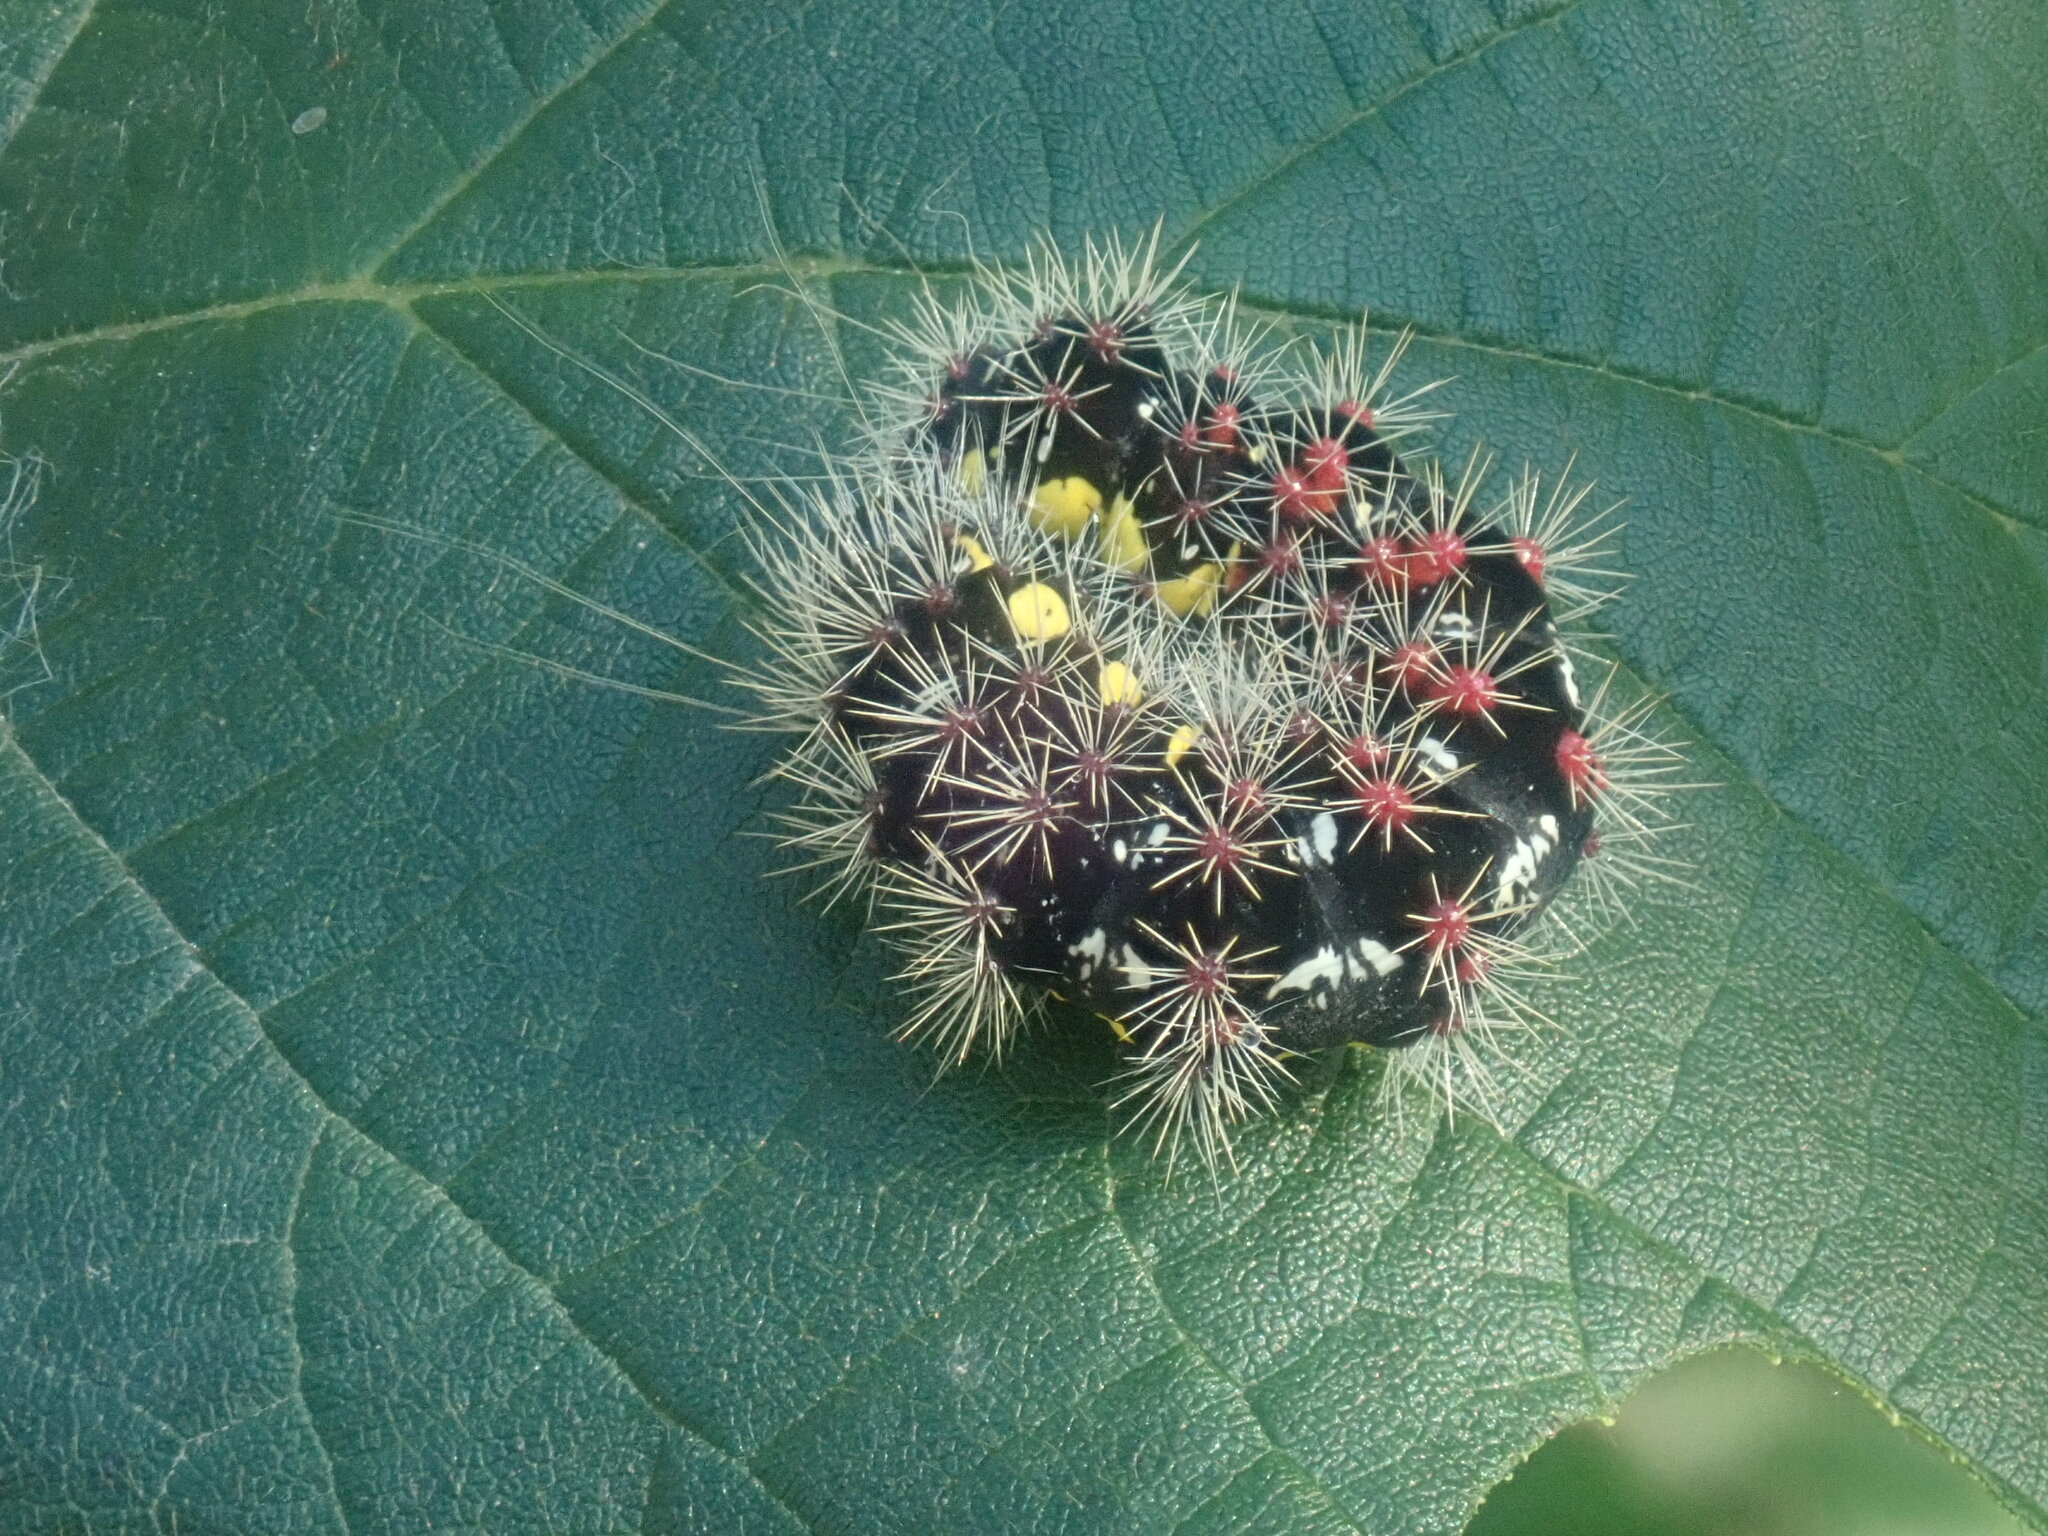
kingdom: Animalia
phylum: Arthropoda
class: Insecta
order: Lepidoptera
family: Noctuidae
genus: Acronicta
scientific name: Acronicta oblinita
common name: Smeared dagger
